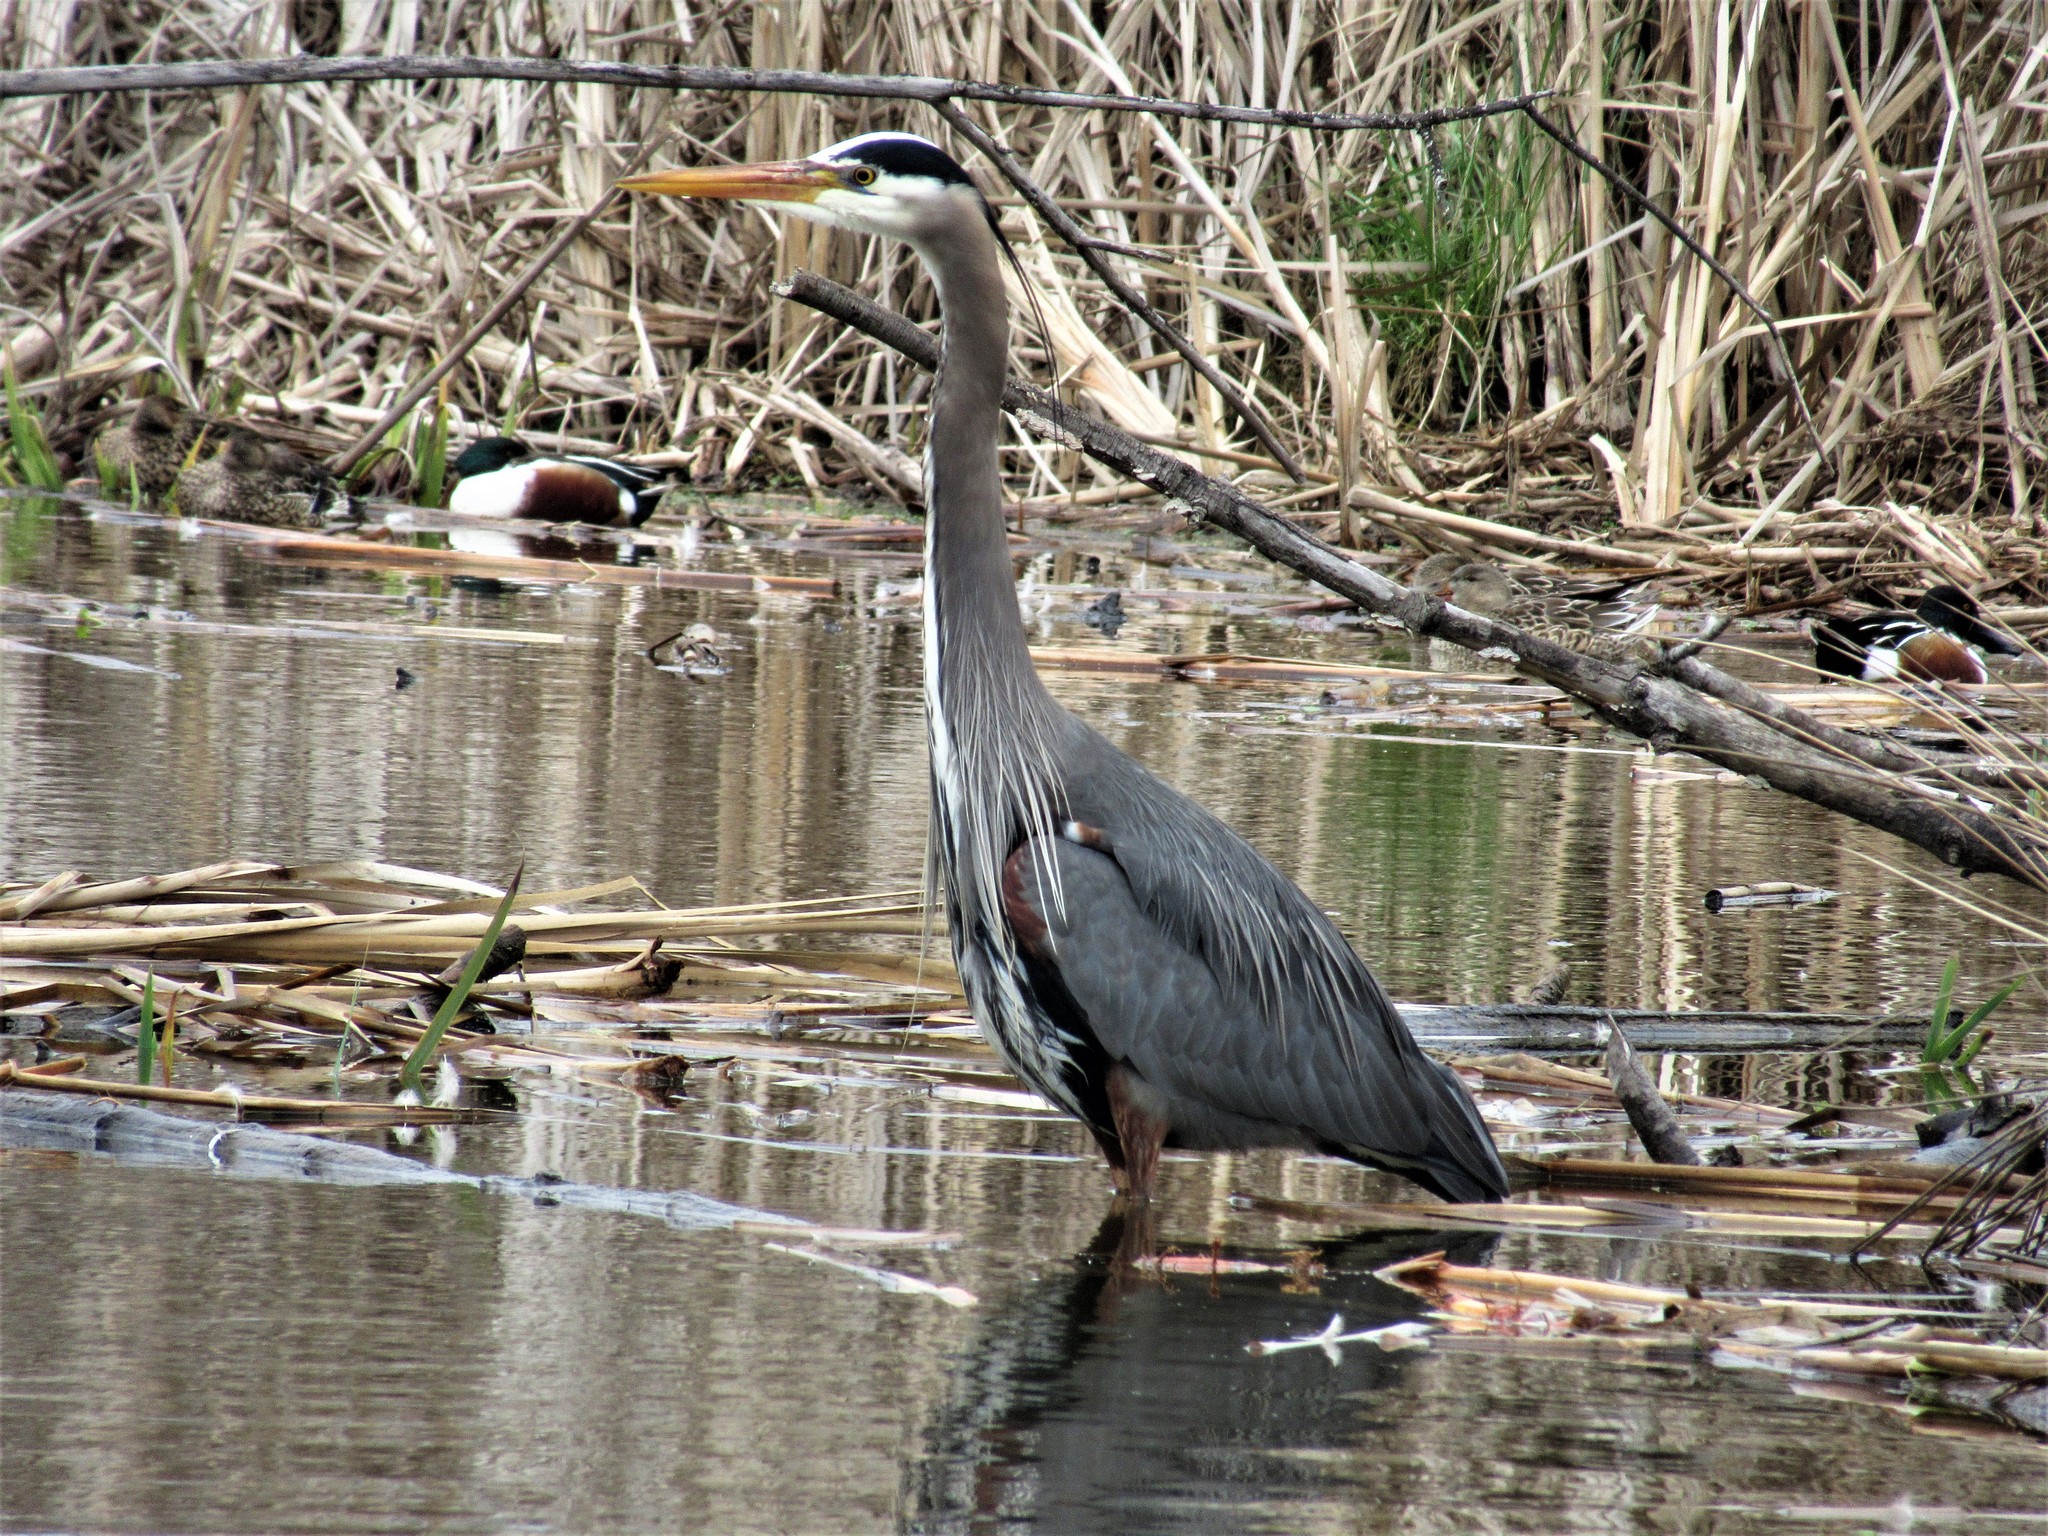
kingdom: Animalia
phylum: Chordata
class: Aves
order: Pelecaniformes
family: Ardeidae
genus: Ardea
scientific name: Ardea herodias
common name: Great blue heron
